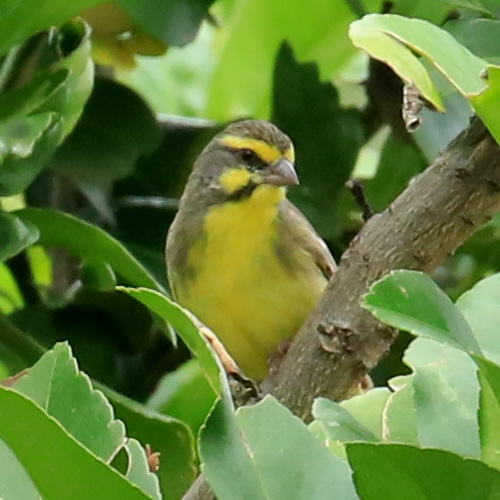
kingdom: Animalia
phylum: Chordata
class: Aves
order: Passeriformes
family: Fringillidae
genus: Crithagra
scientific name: Crithagra mozambica
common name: Yellow-fronted canary
